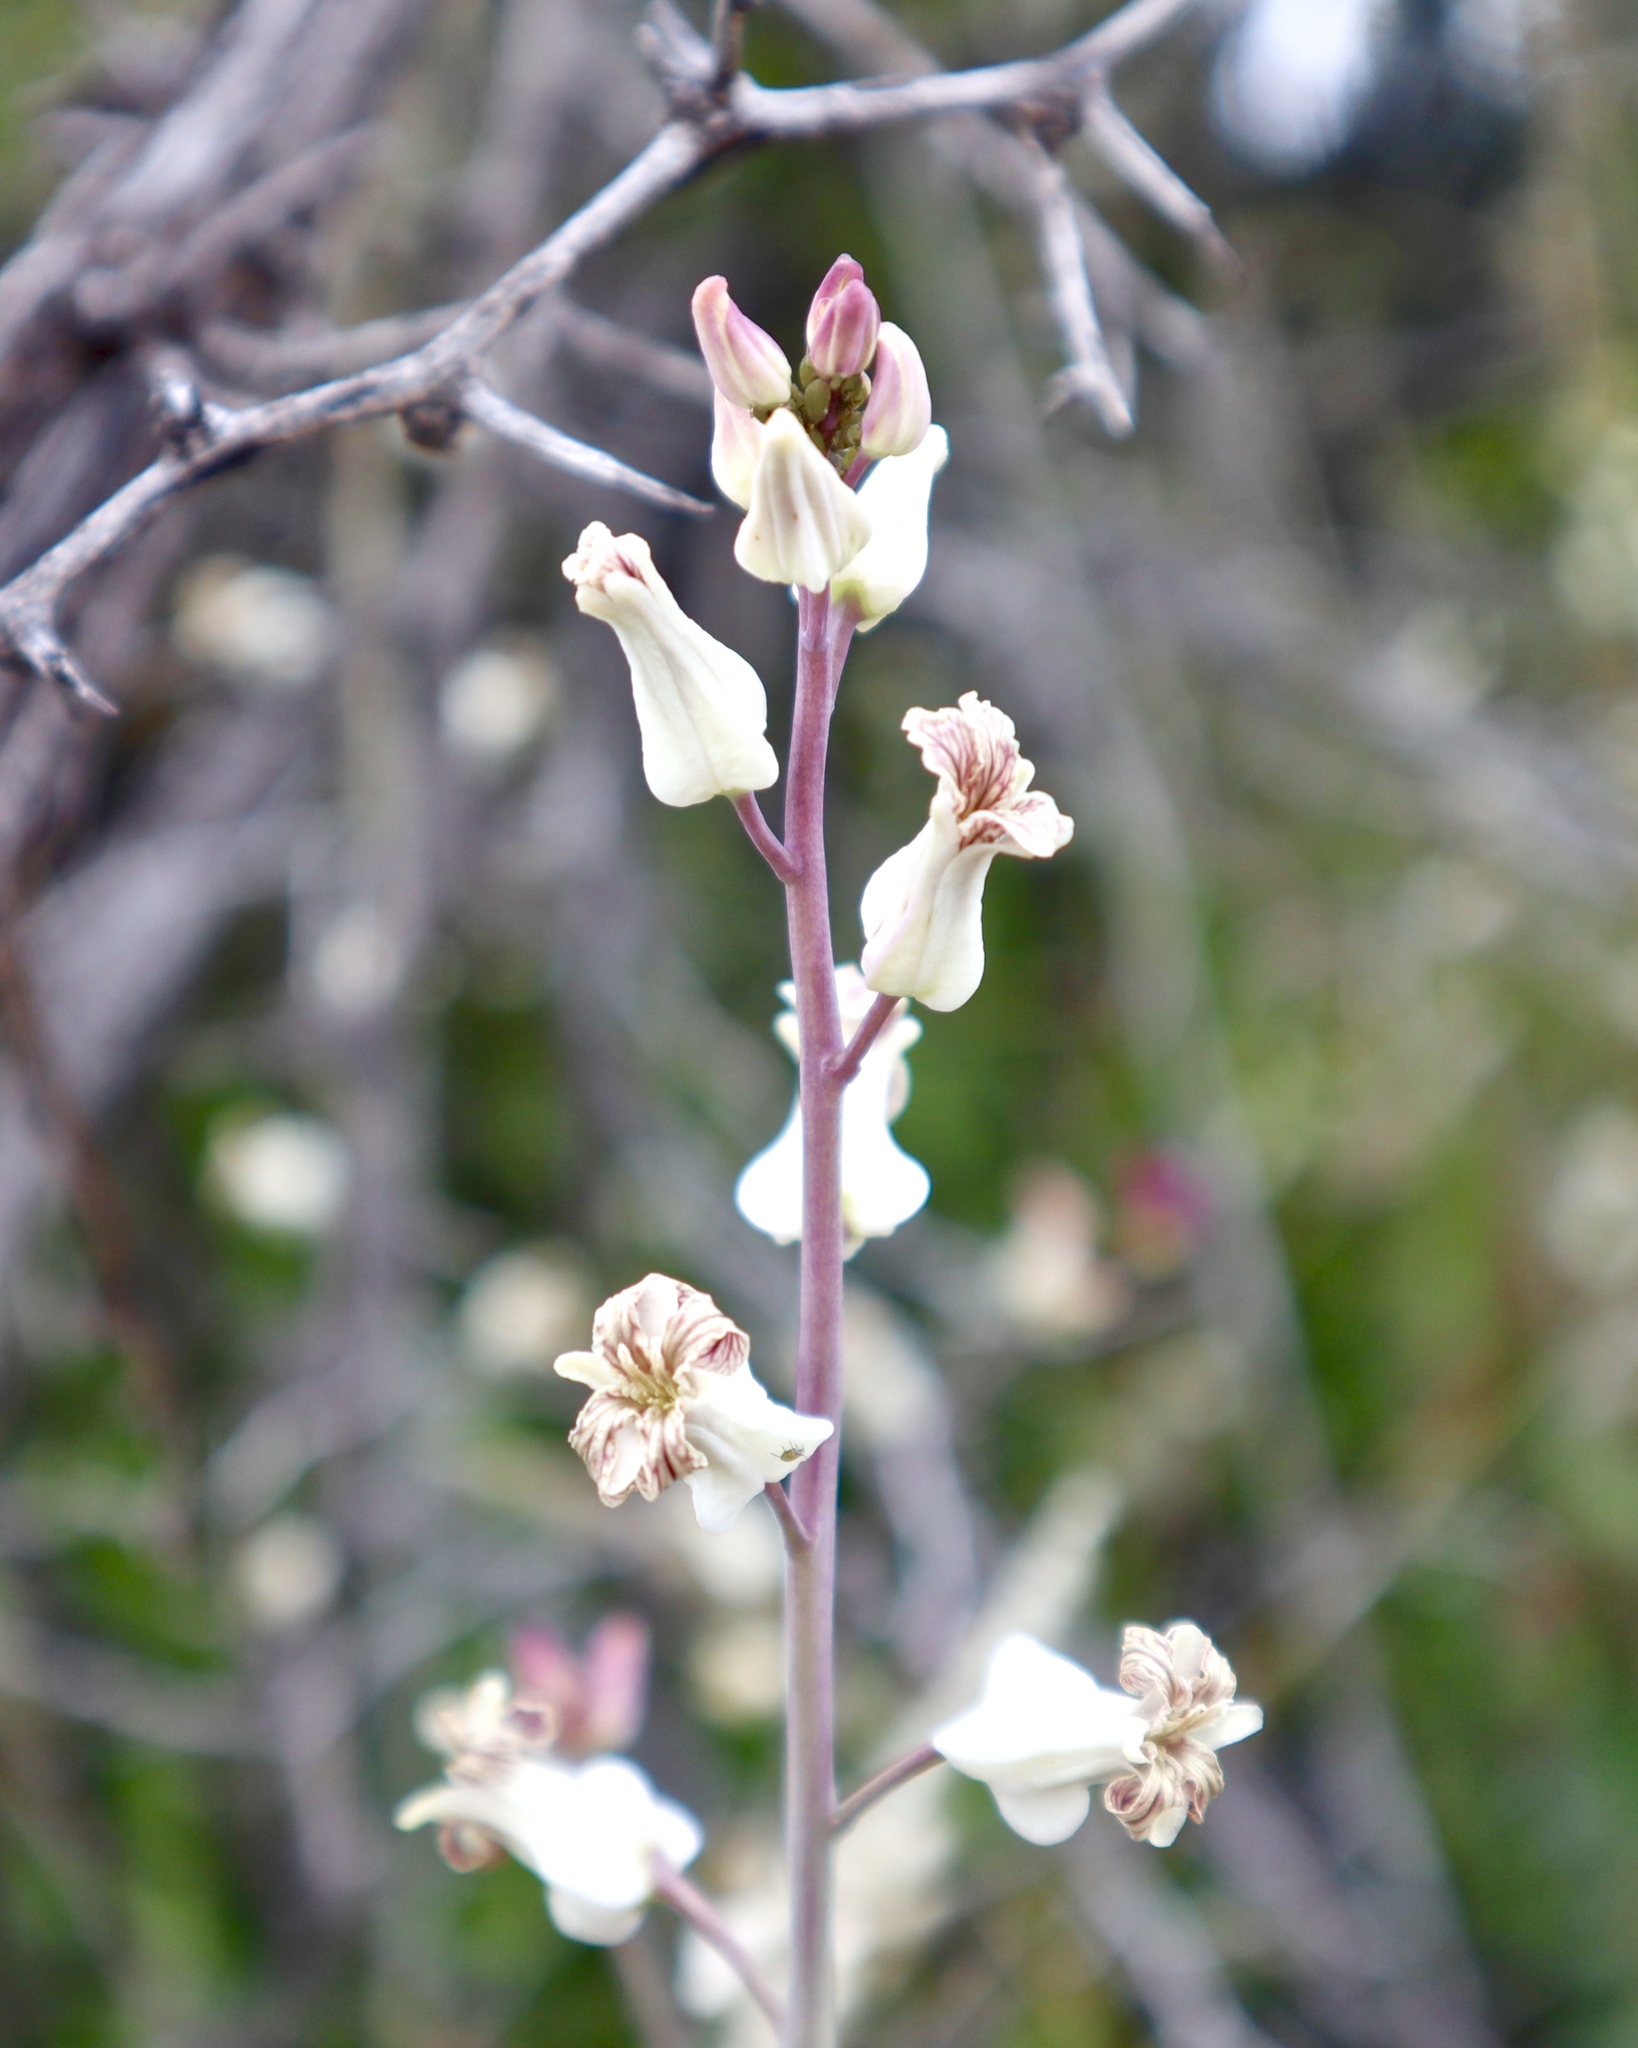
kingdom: Plantae
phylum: Tracheophyta
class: Magnoliopsida
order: Brassicales
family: Brassicaceae
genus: Streptanthus
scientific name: Streptanthus carinatus
